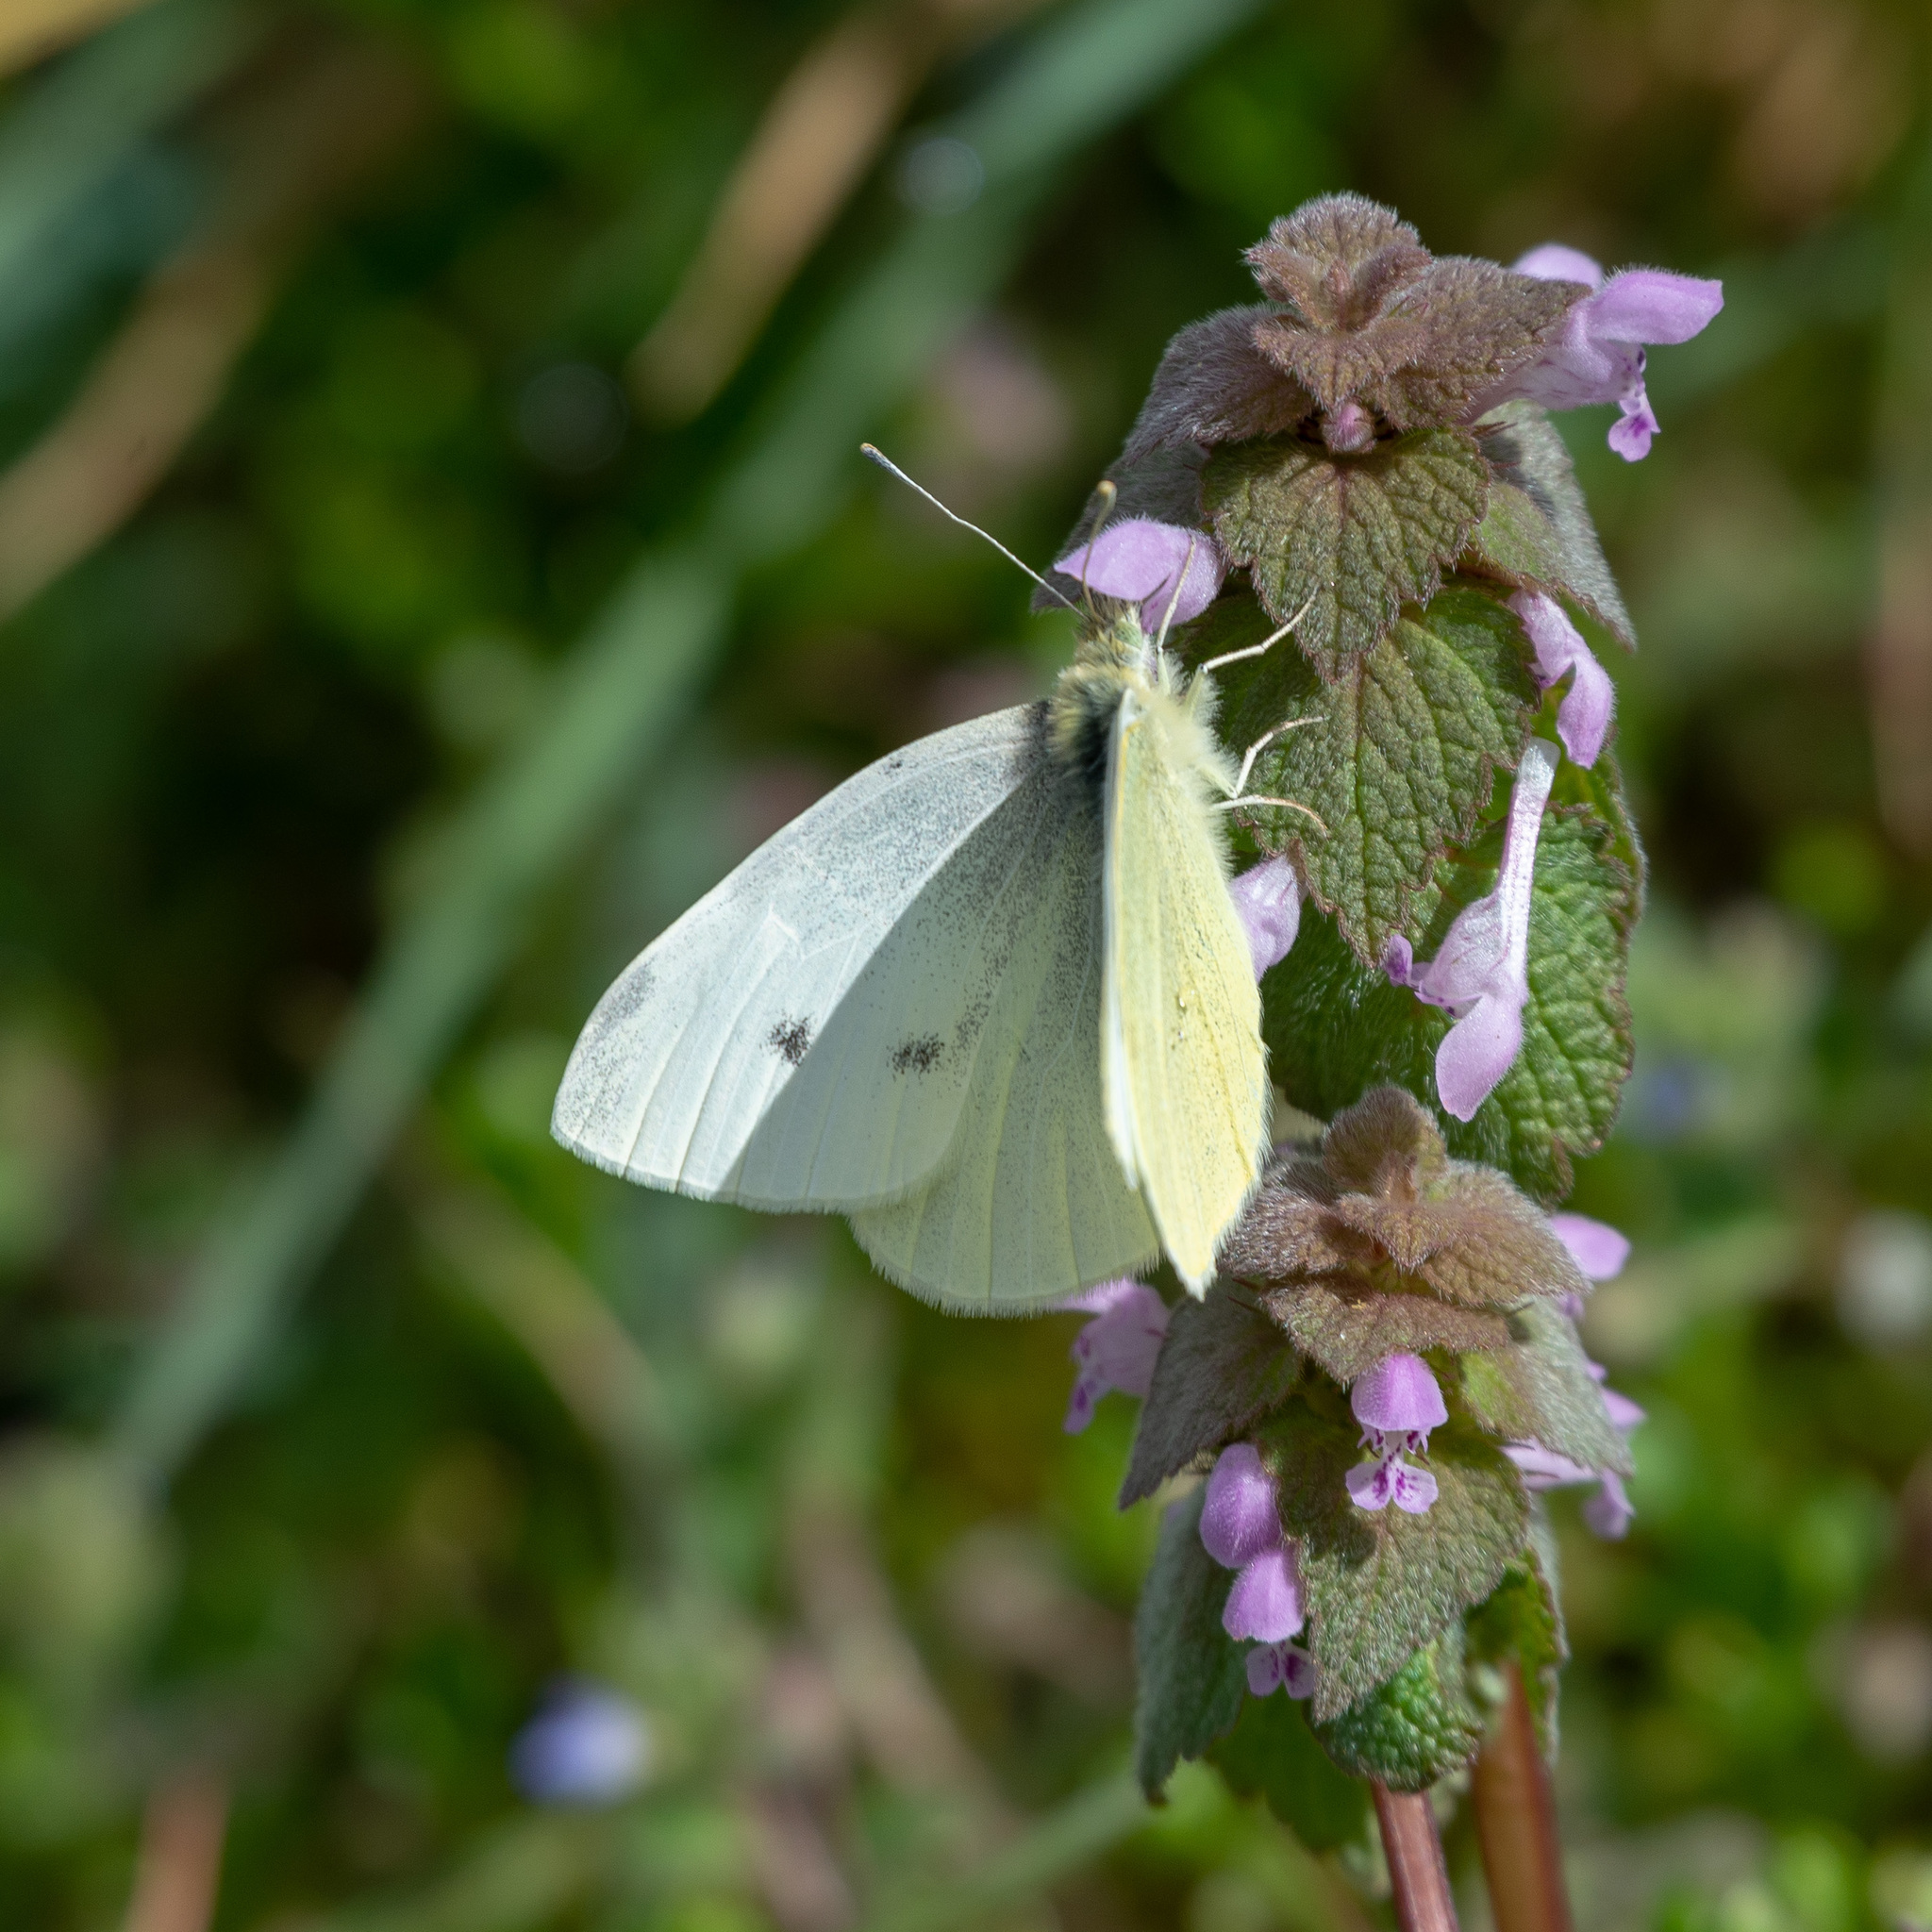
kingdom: Animalia
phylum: Arthropoda
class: Insecta
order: Lepidoptera
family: Pieridae
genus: Pieris
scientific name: Pieris rapae
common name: Small white
